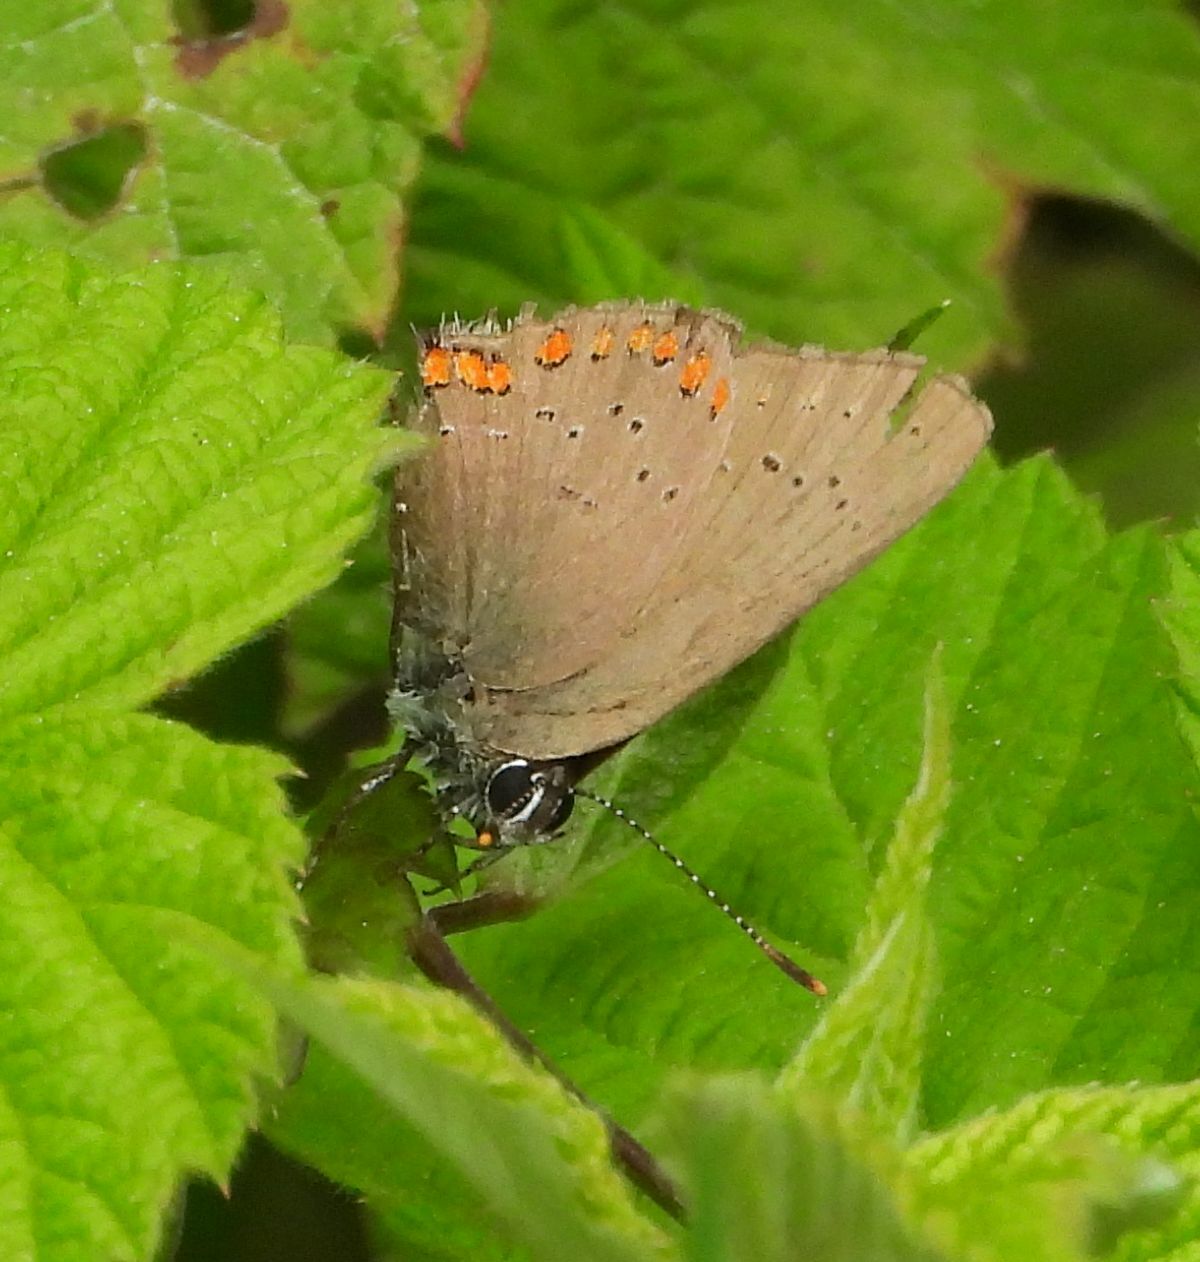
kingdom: Animalia
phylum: Arthropoda
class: Insecta
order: Lepidoptera
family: Lycaenidae
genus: Harkenclenus
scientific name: Harkenclenus titus
